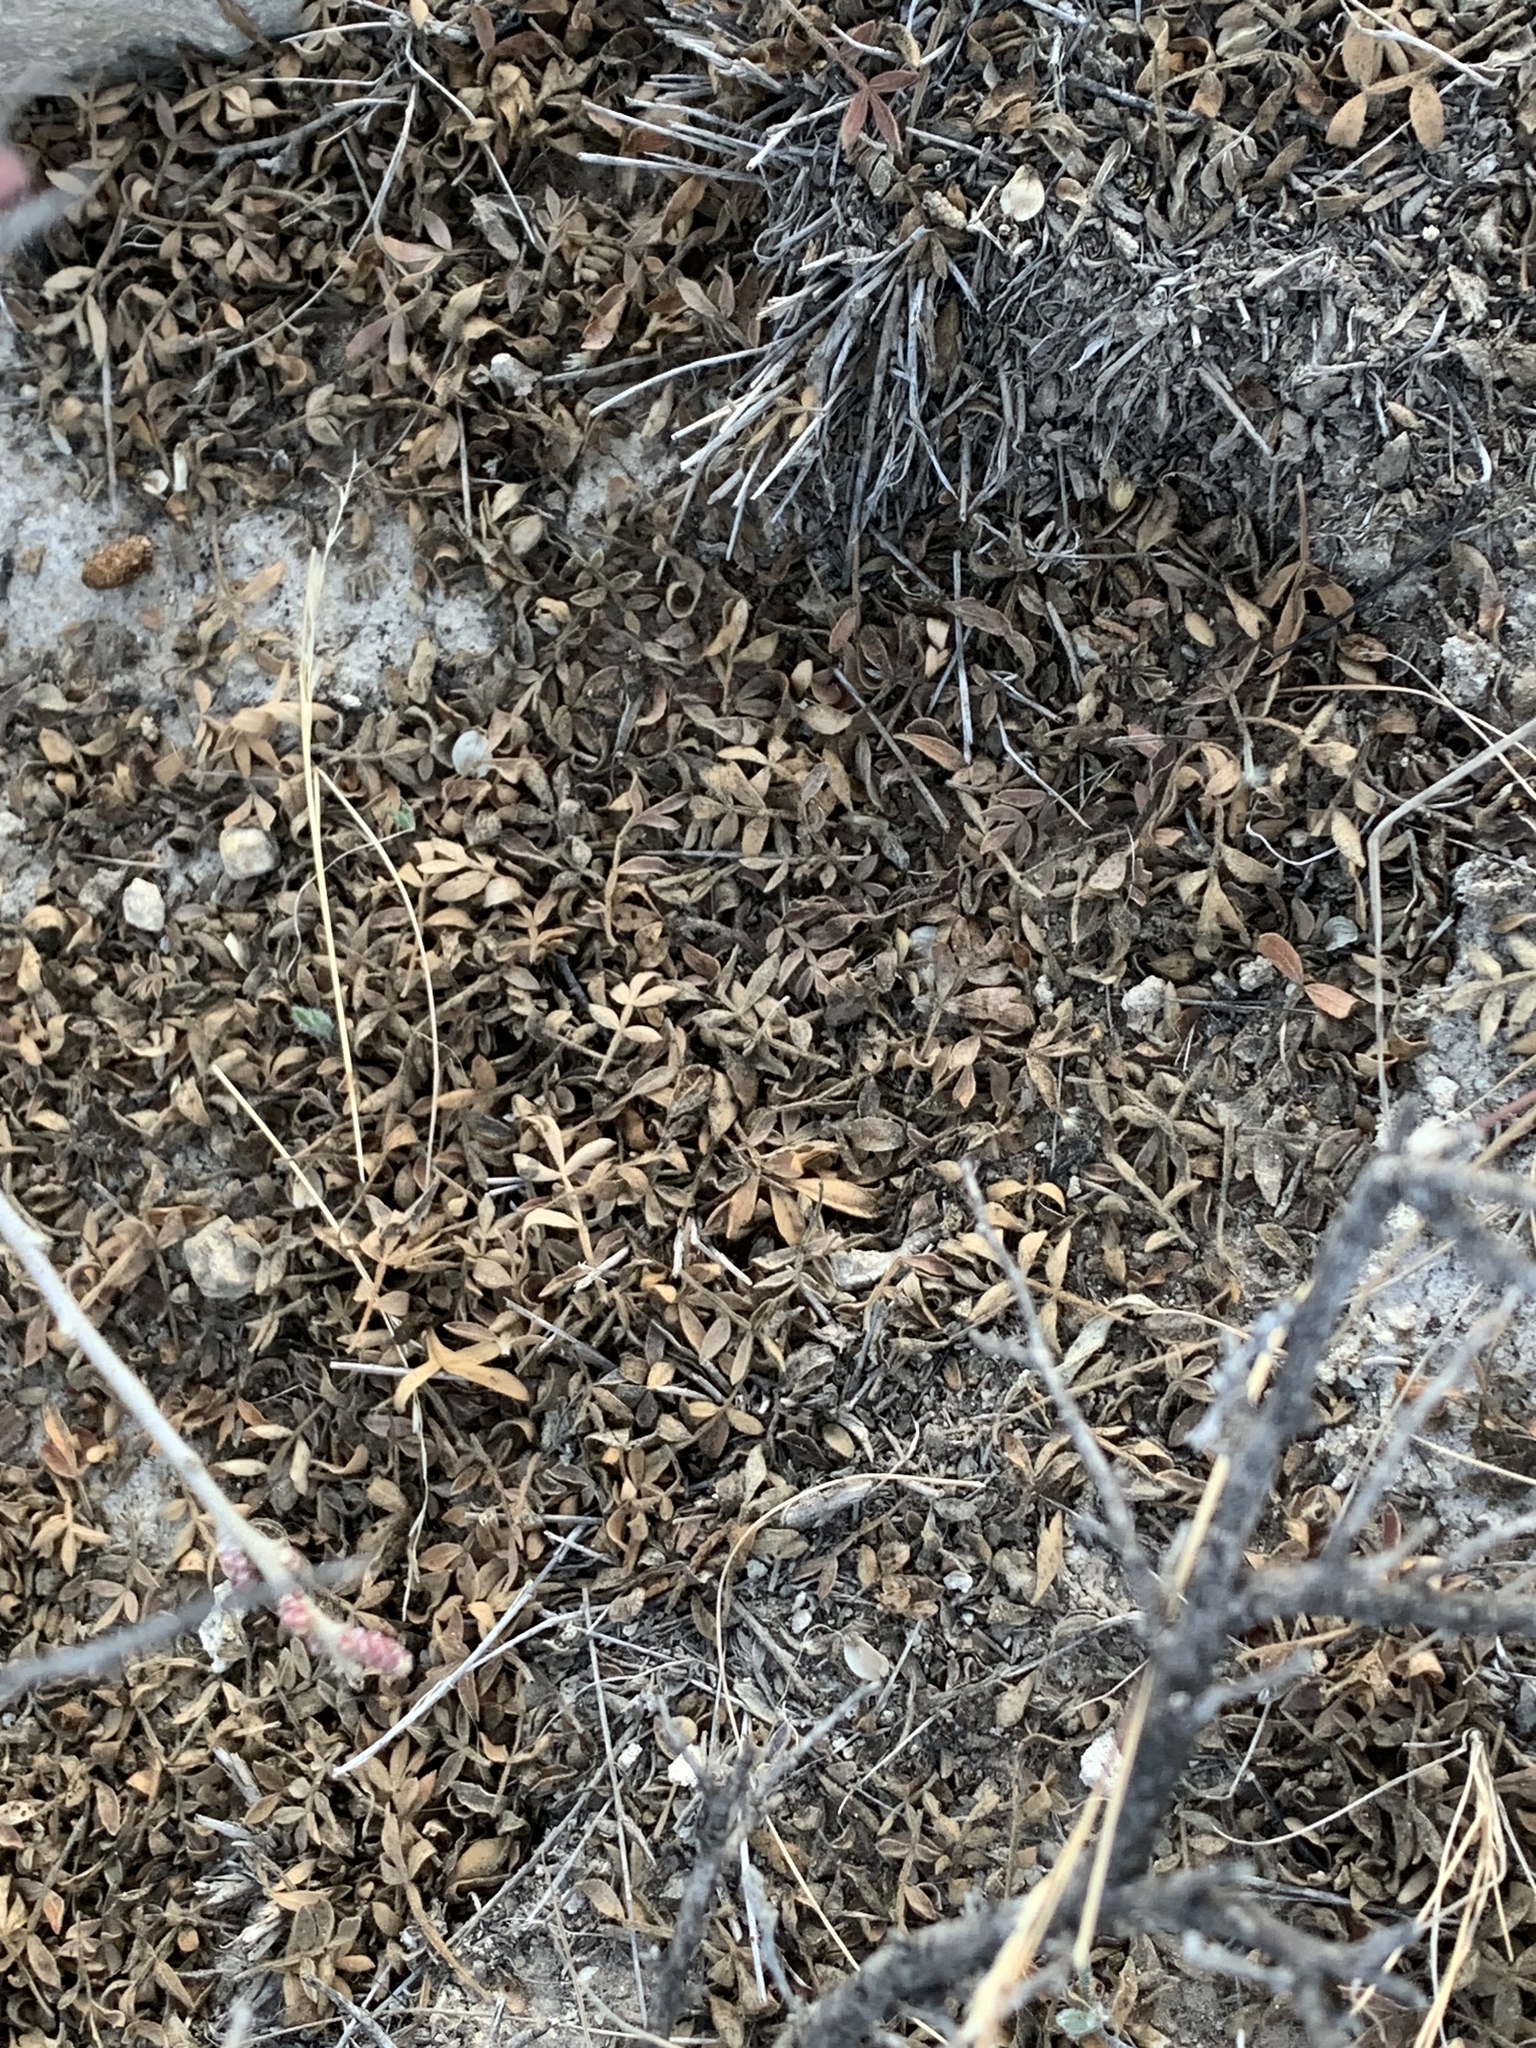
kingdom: Plantae
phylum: Tracheophyta
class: Magnoliopsida
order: Sapindales
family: Anacardiaceae
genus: Rhus
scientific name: Rhus microphylla
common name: Desert sumac
